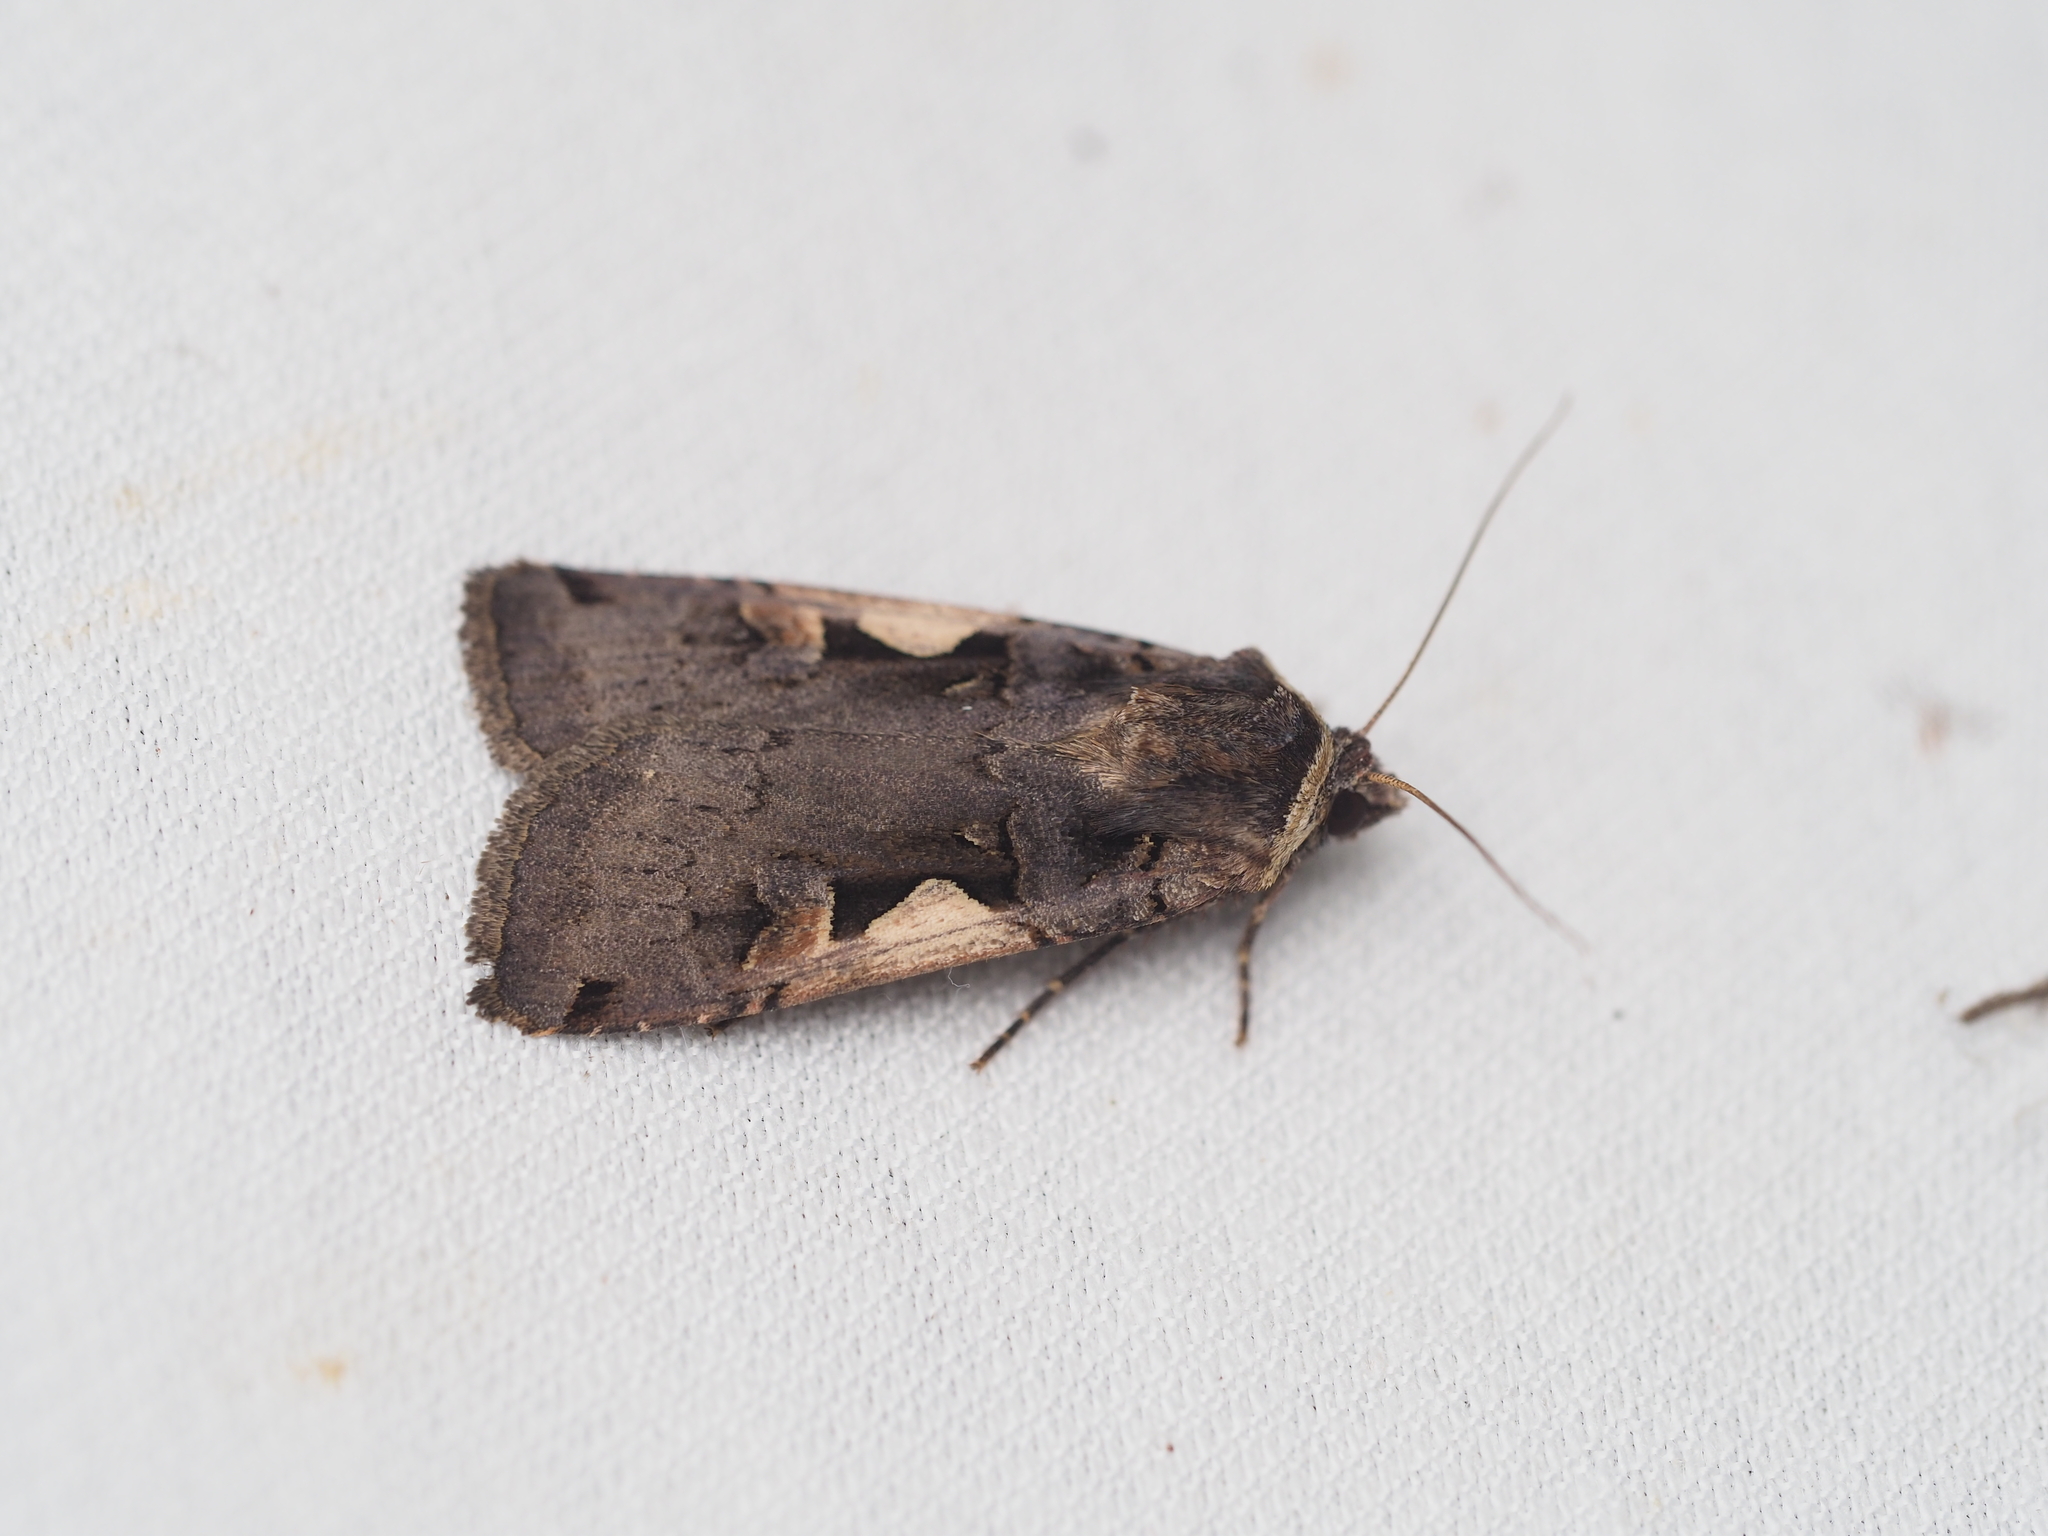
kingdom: Animalia
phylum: Arthropoda
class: Insecta
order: Lepidoptera
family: Noctuidae
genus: Xestia
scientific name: Xestia c-nigrum
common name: Setaceous hebrew character
